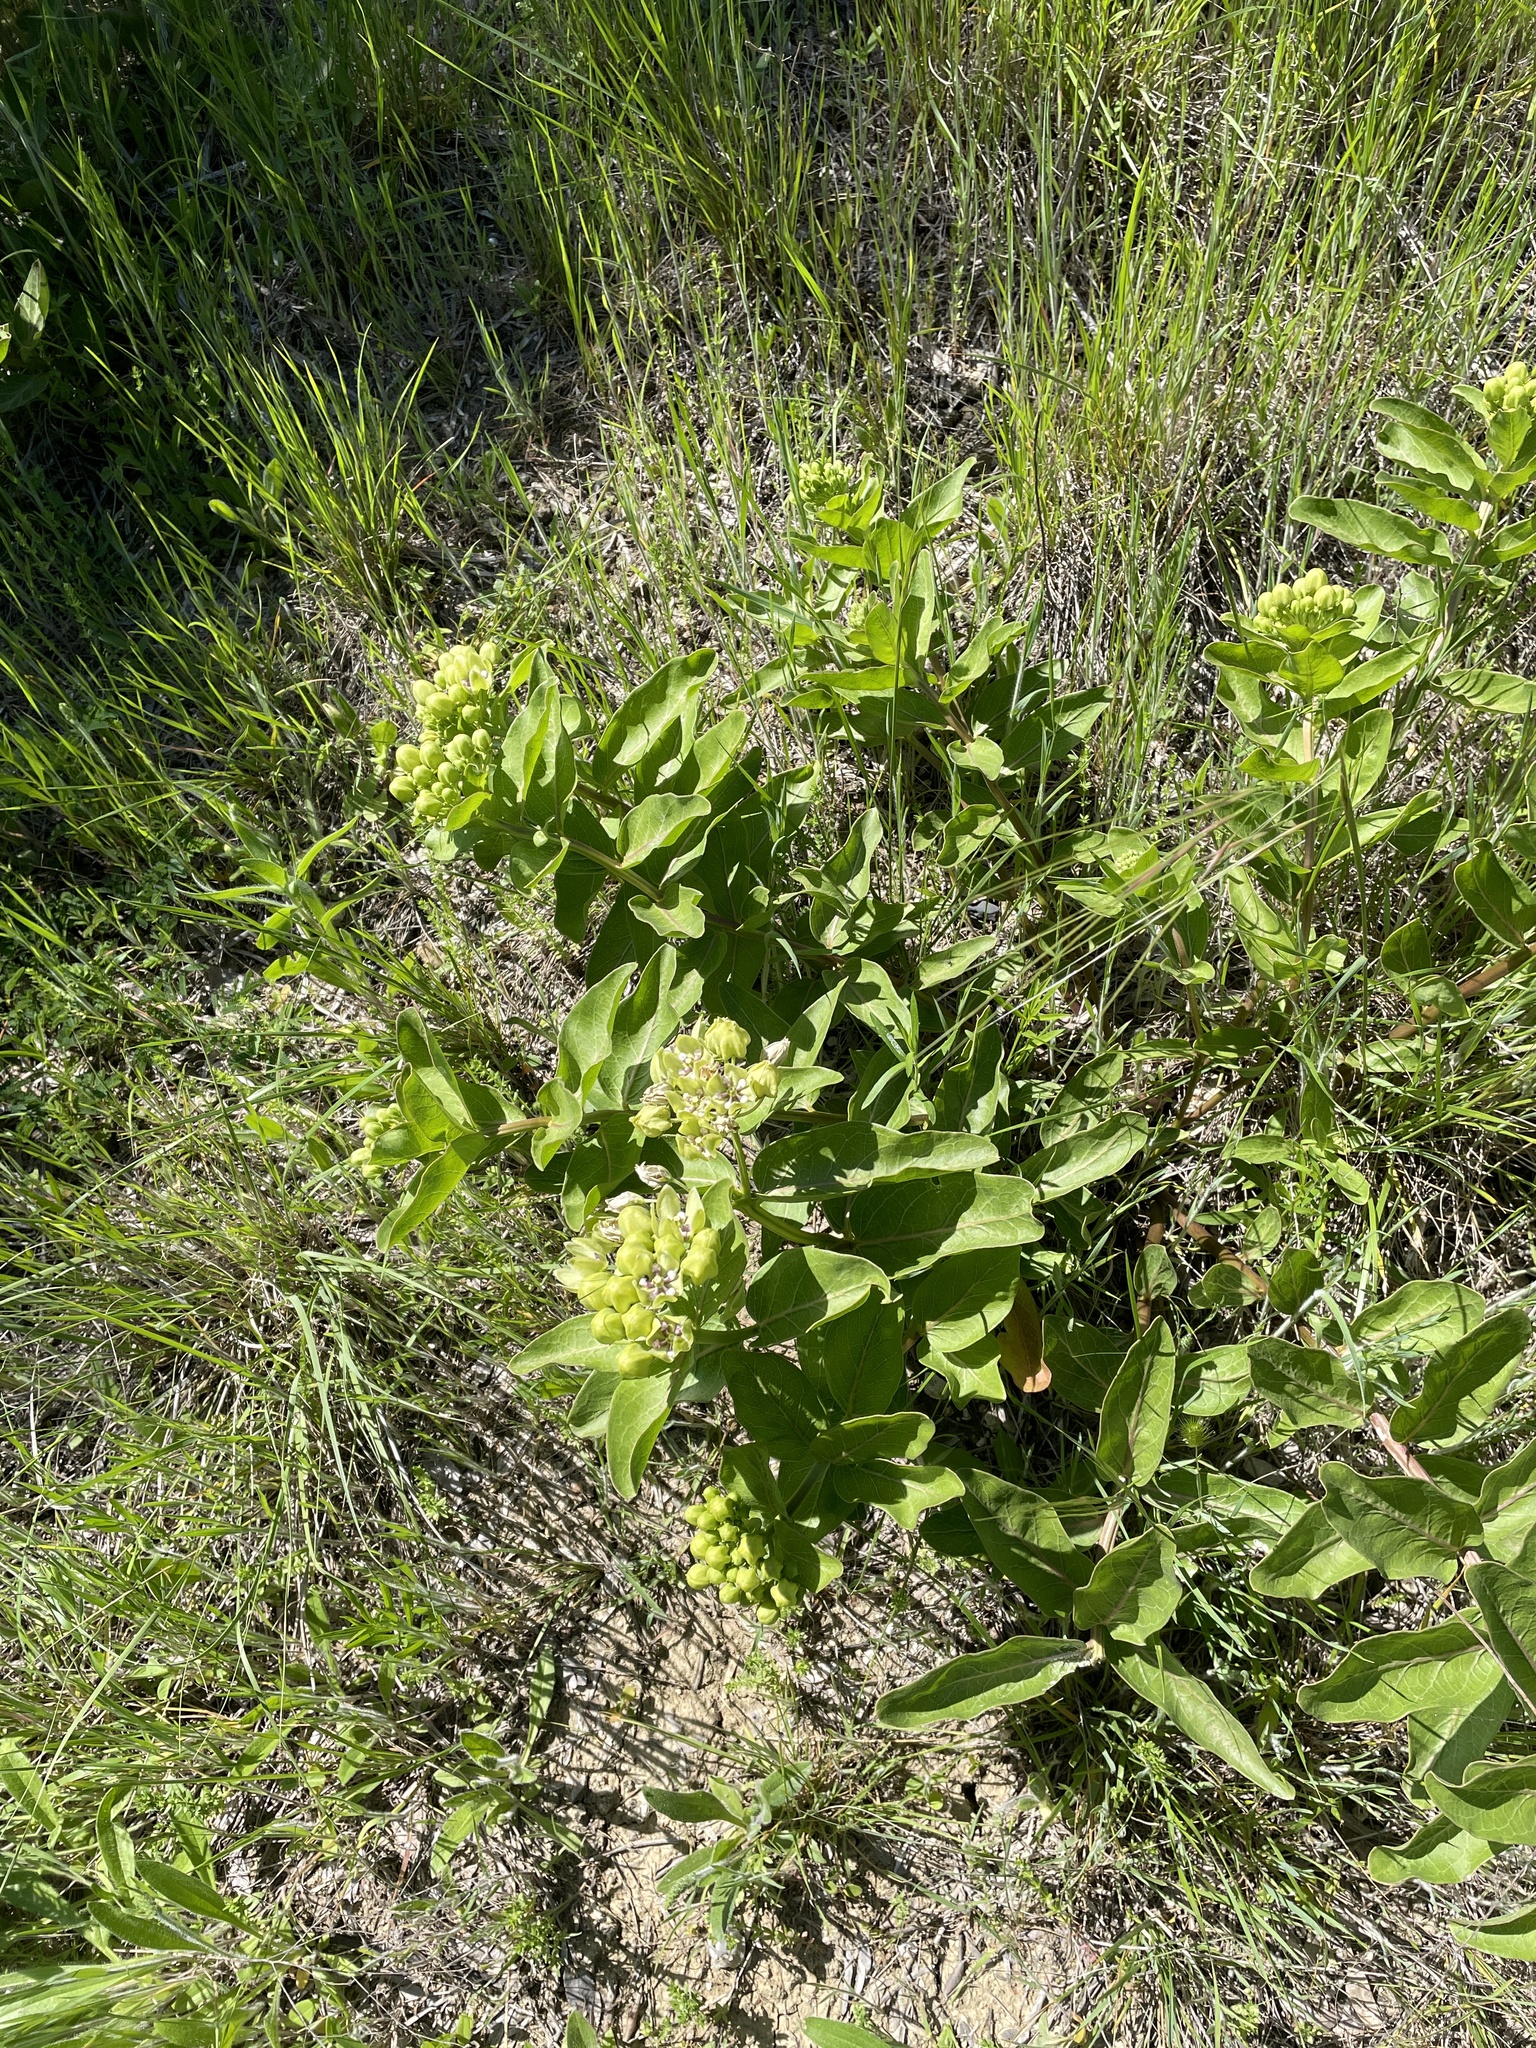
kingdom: Plantae
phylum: Tracheophyta
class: Magnoliopsida
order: Gentianales
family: Apocynaceae
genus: Asclepias
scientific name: Asclepias viridis
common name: Antelope-horns
